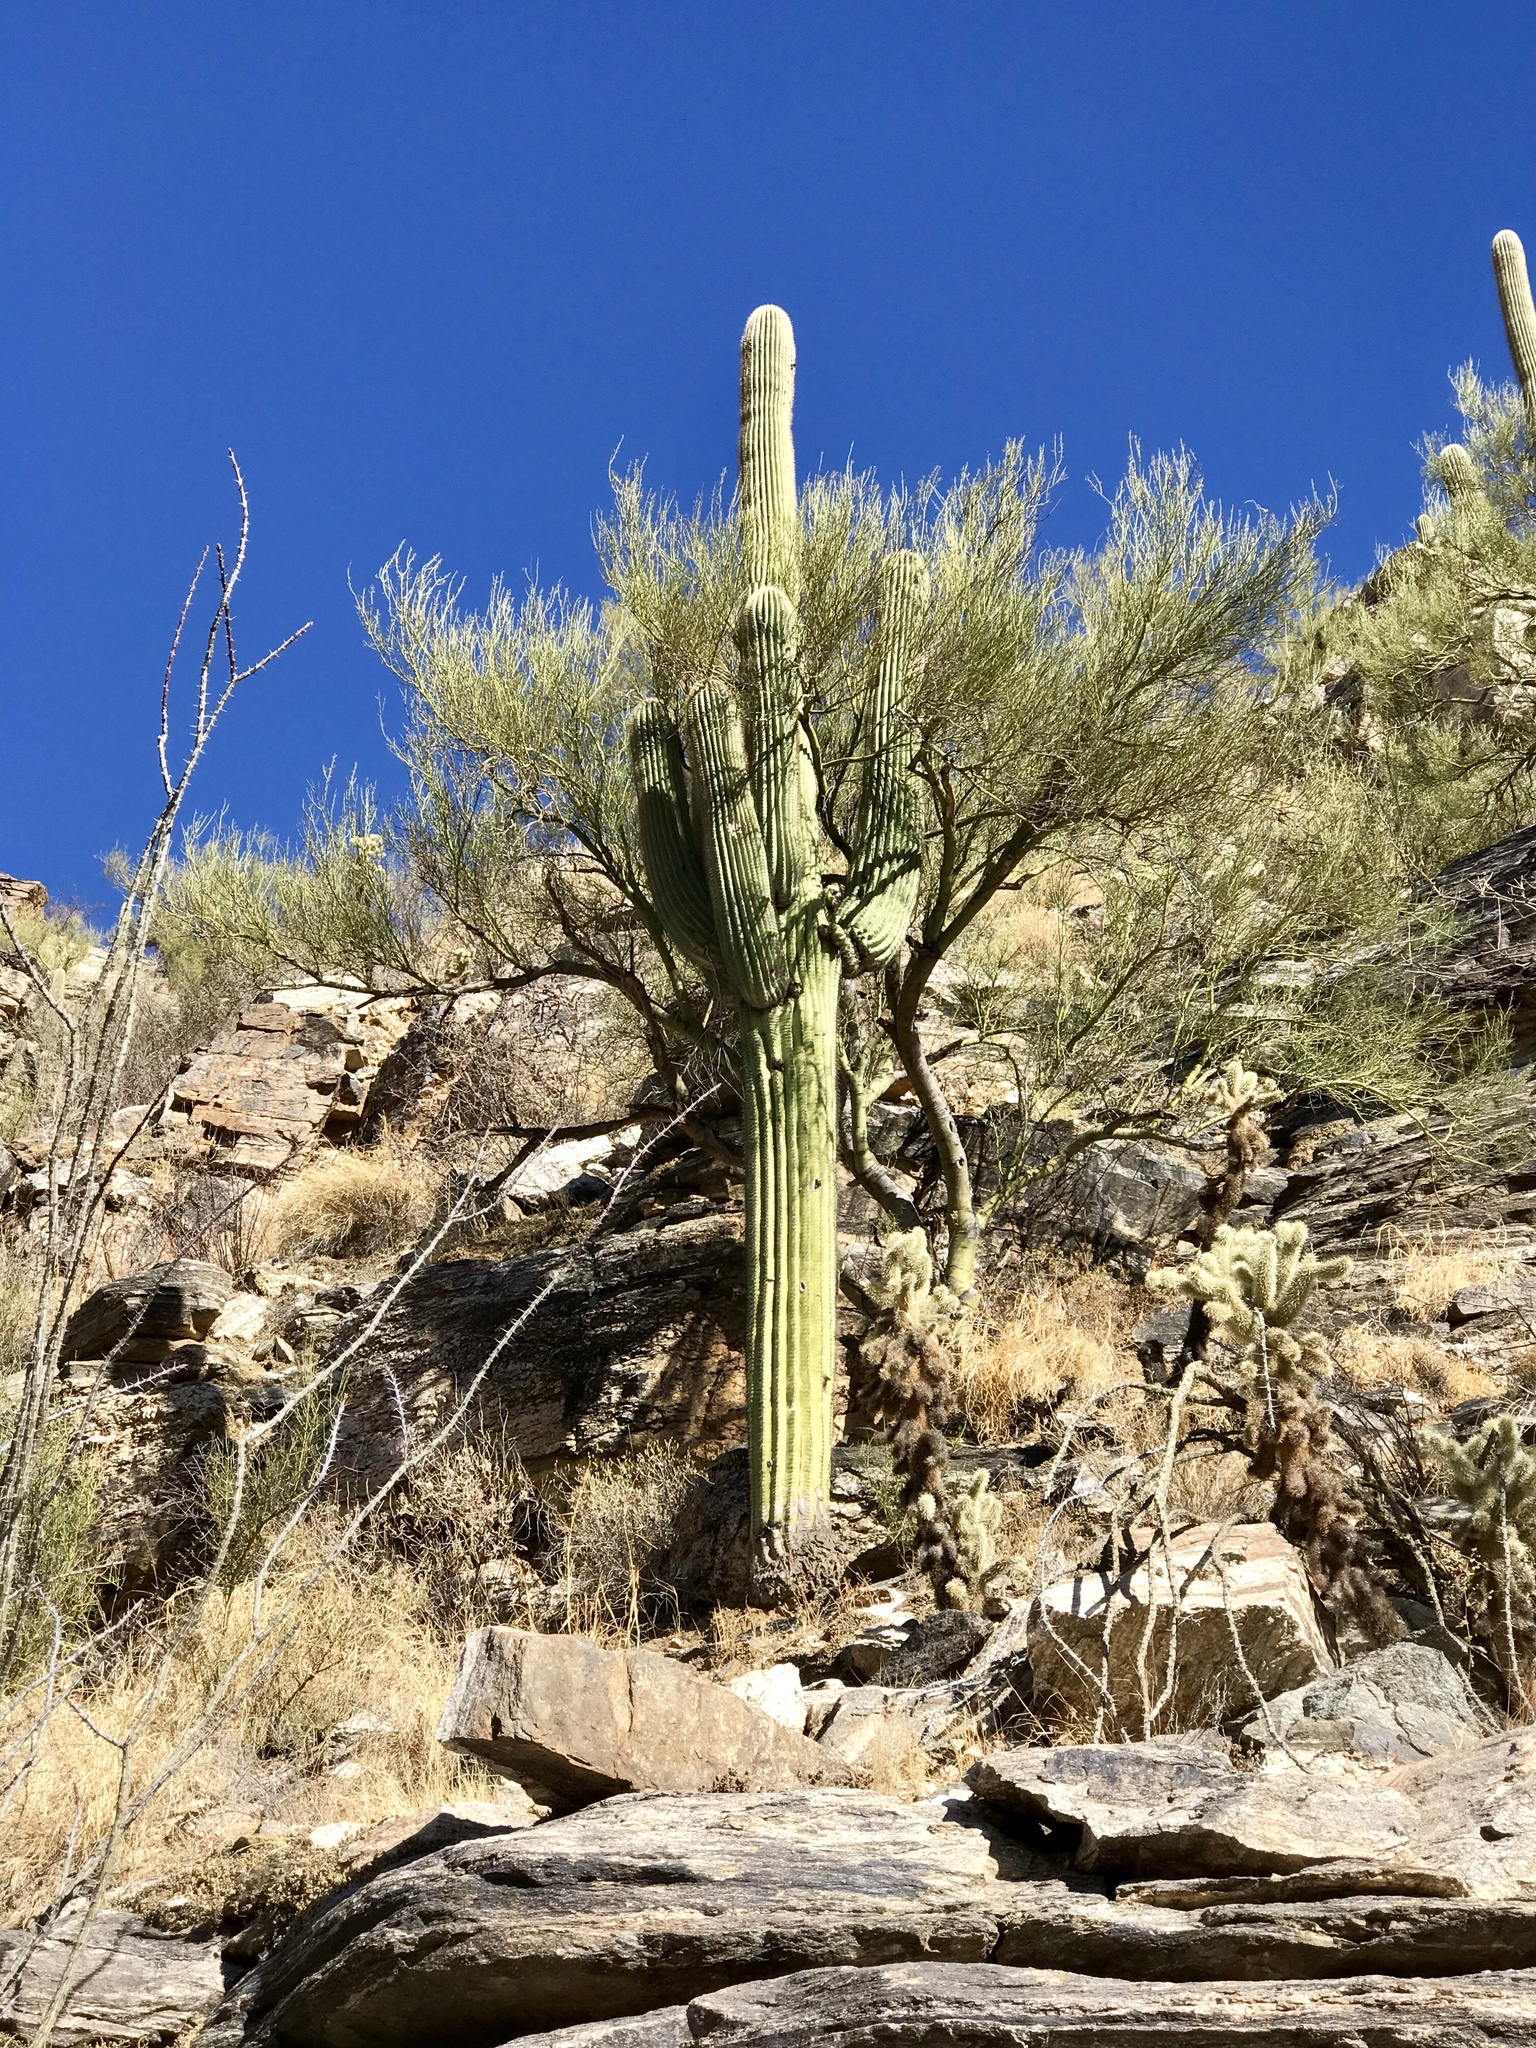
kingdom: Plantae
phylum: Tracheophyta
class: Magnoliopsida
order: Caryophyllales
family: Cactaceae
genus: Carnegiea
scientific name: Carnegiea gigantea
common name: Saguaro
